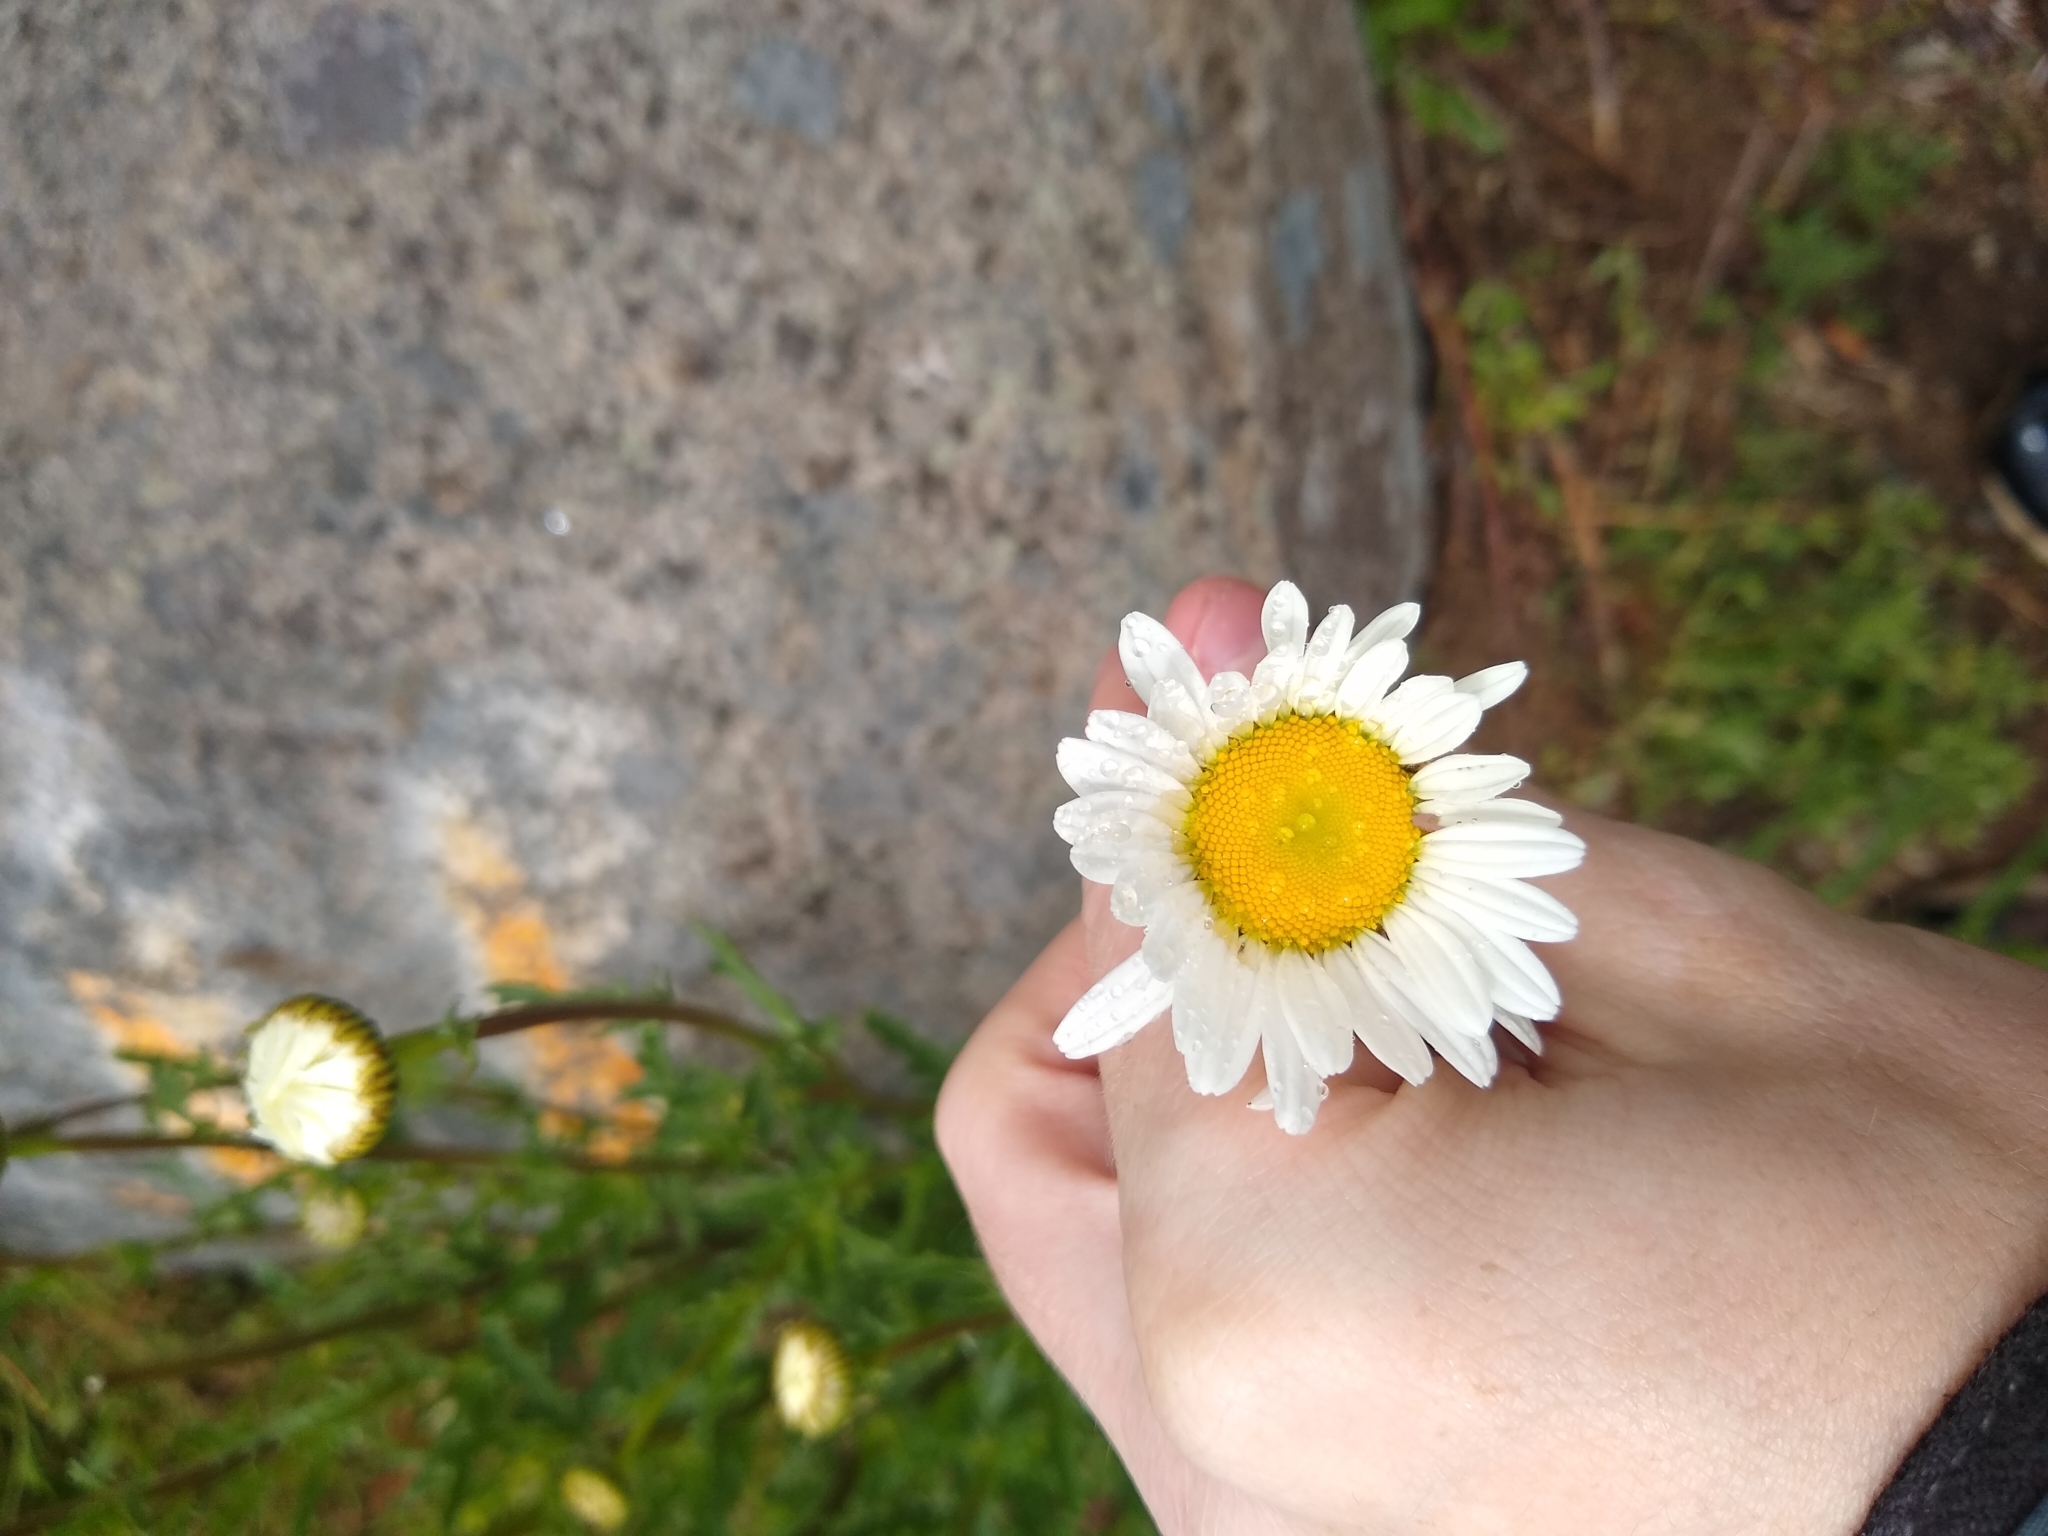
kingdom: Plantae
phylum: Tracheophyta
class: Magnoliopsida
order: Asterales
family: Asteraceae
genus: Leucanthemum
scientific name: Leucanthemum vulgare
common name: Oxeye daisy
